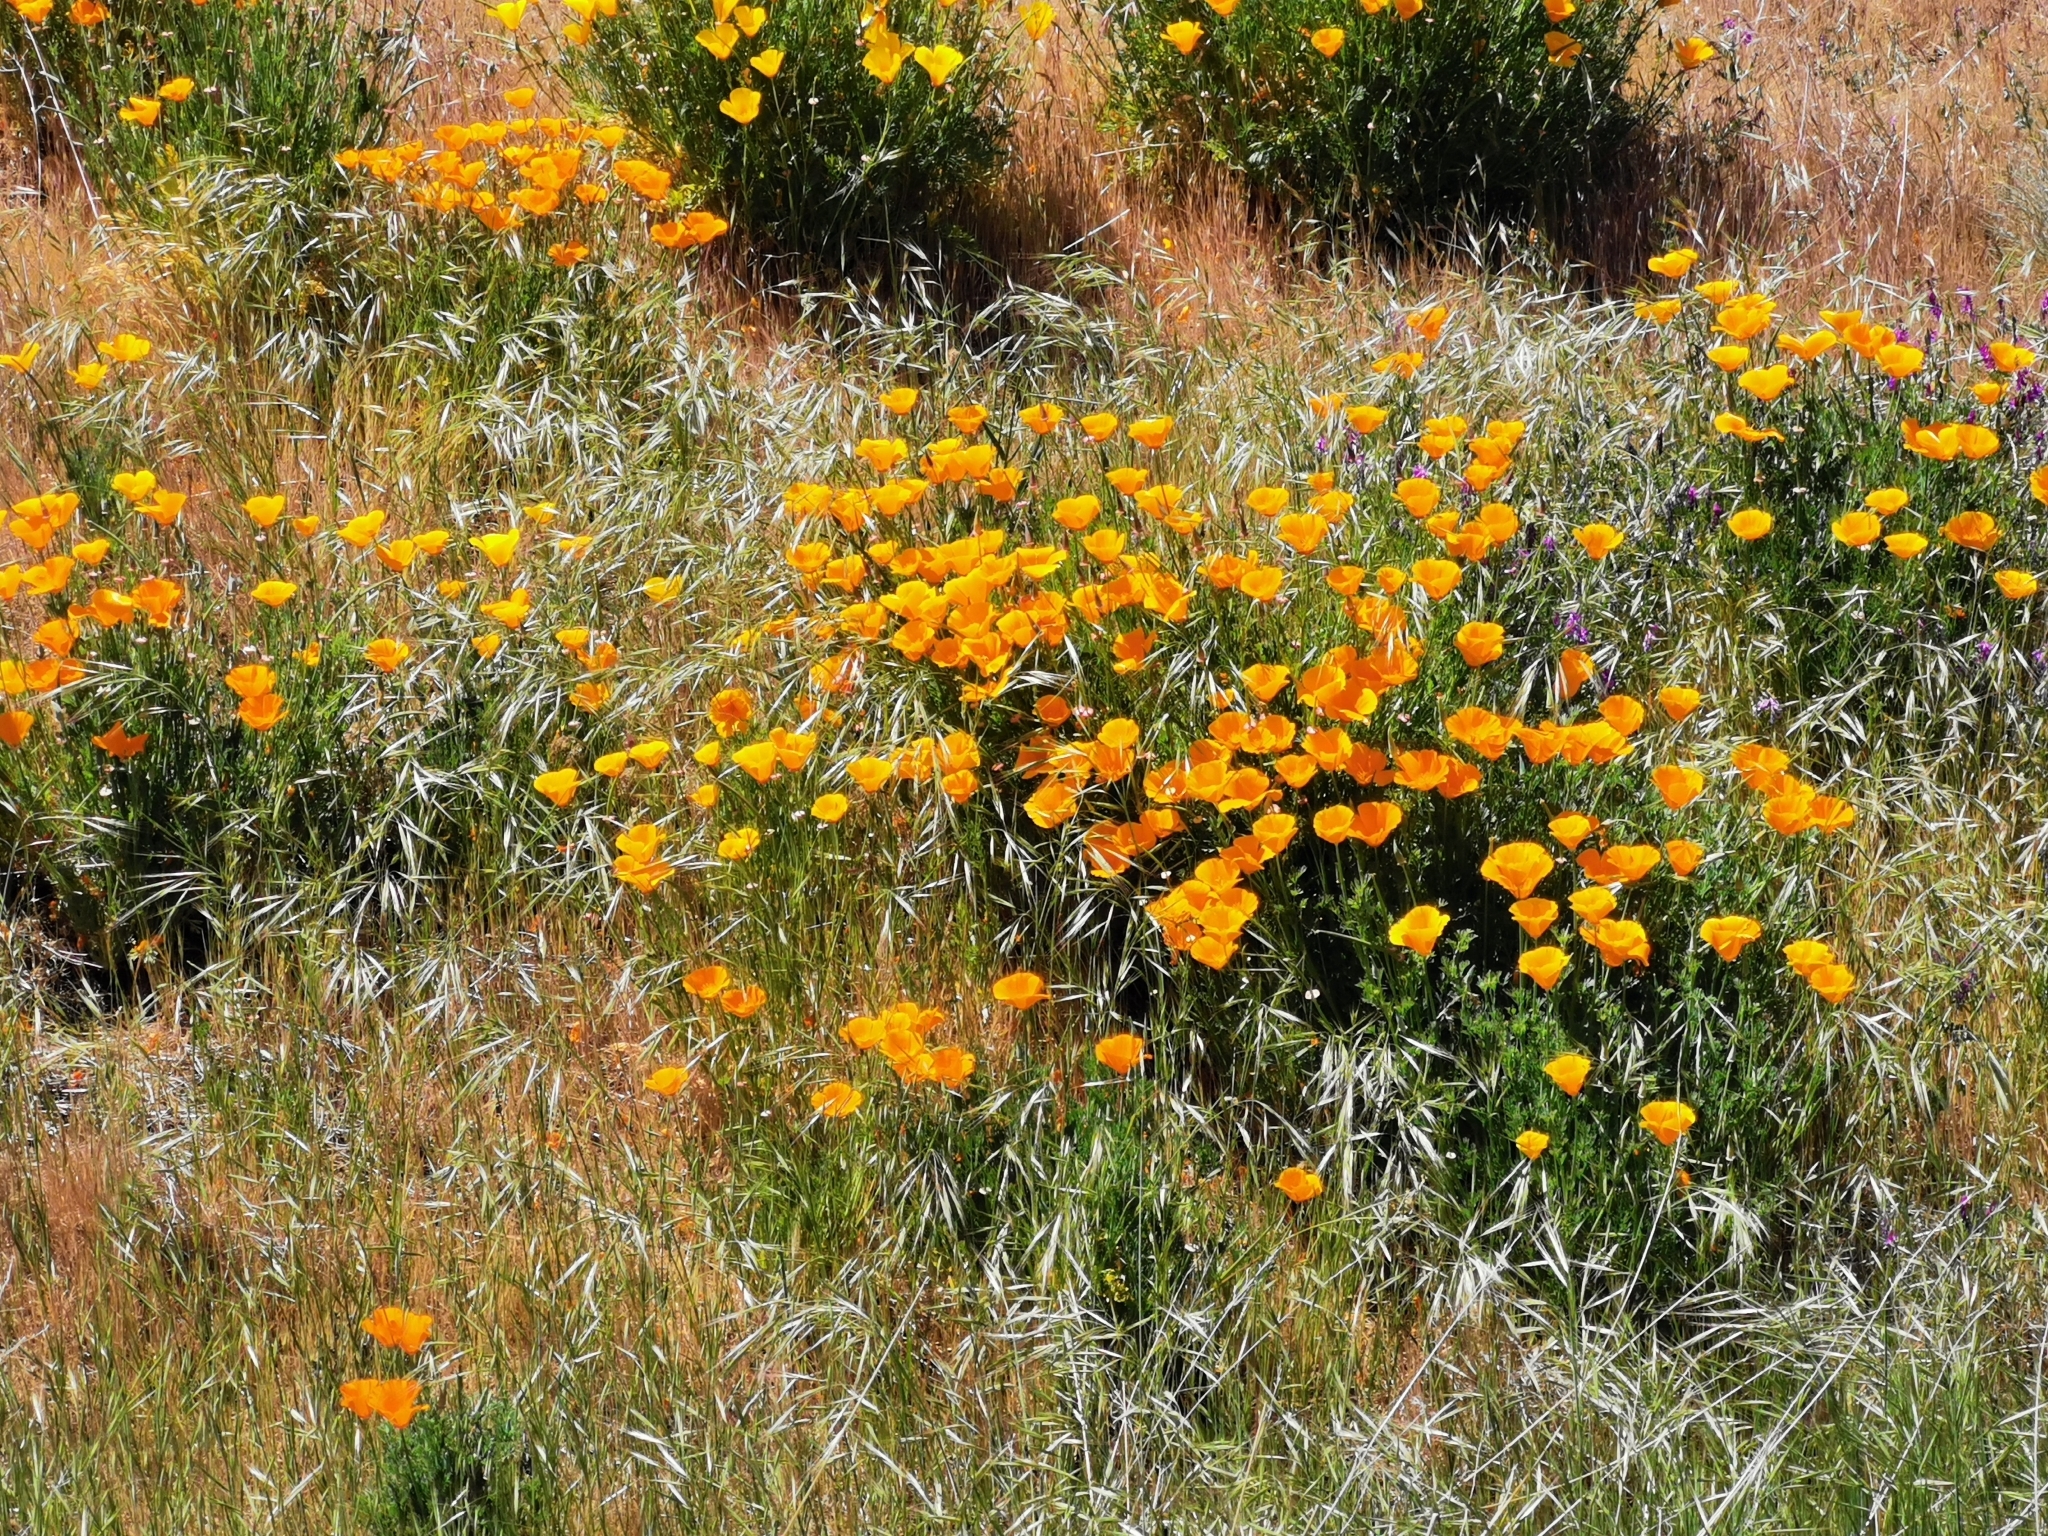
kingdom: Plantae
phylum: Tracheophyta
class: Magnoliopsida
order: Ranunculales
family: Papaveraceae
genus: Eschscholzia
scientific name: Eschscholzia californica
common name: California poppy
